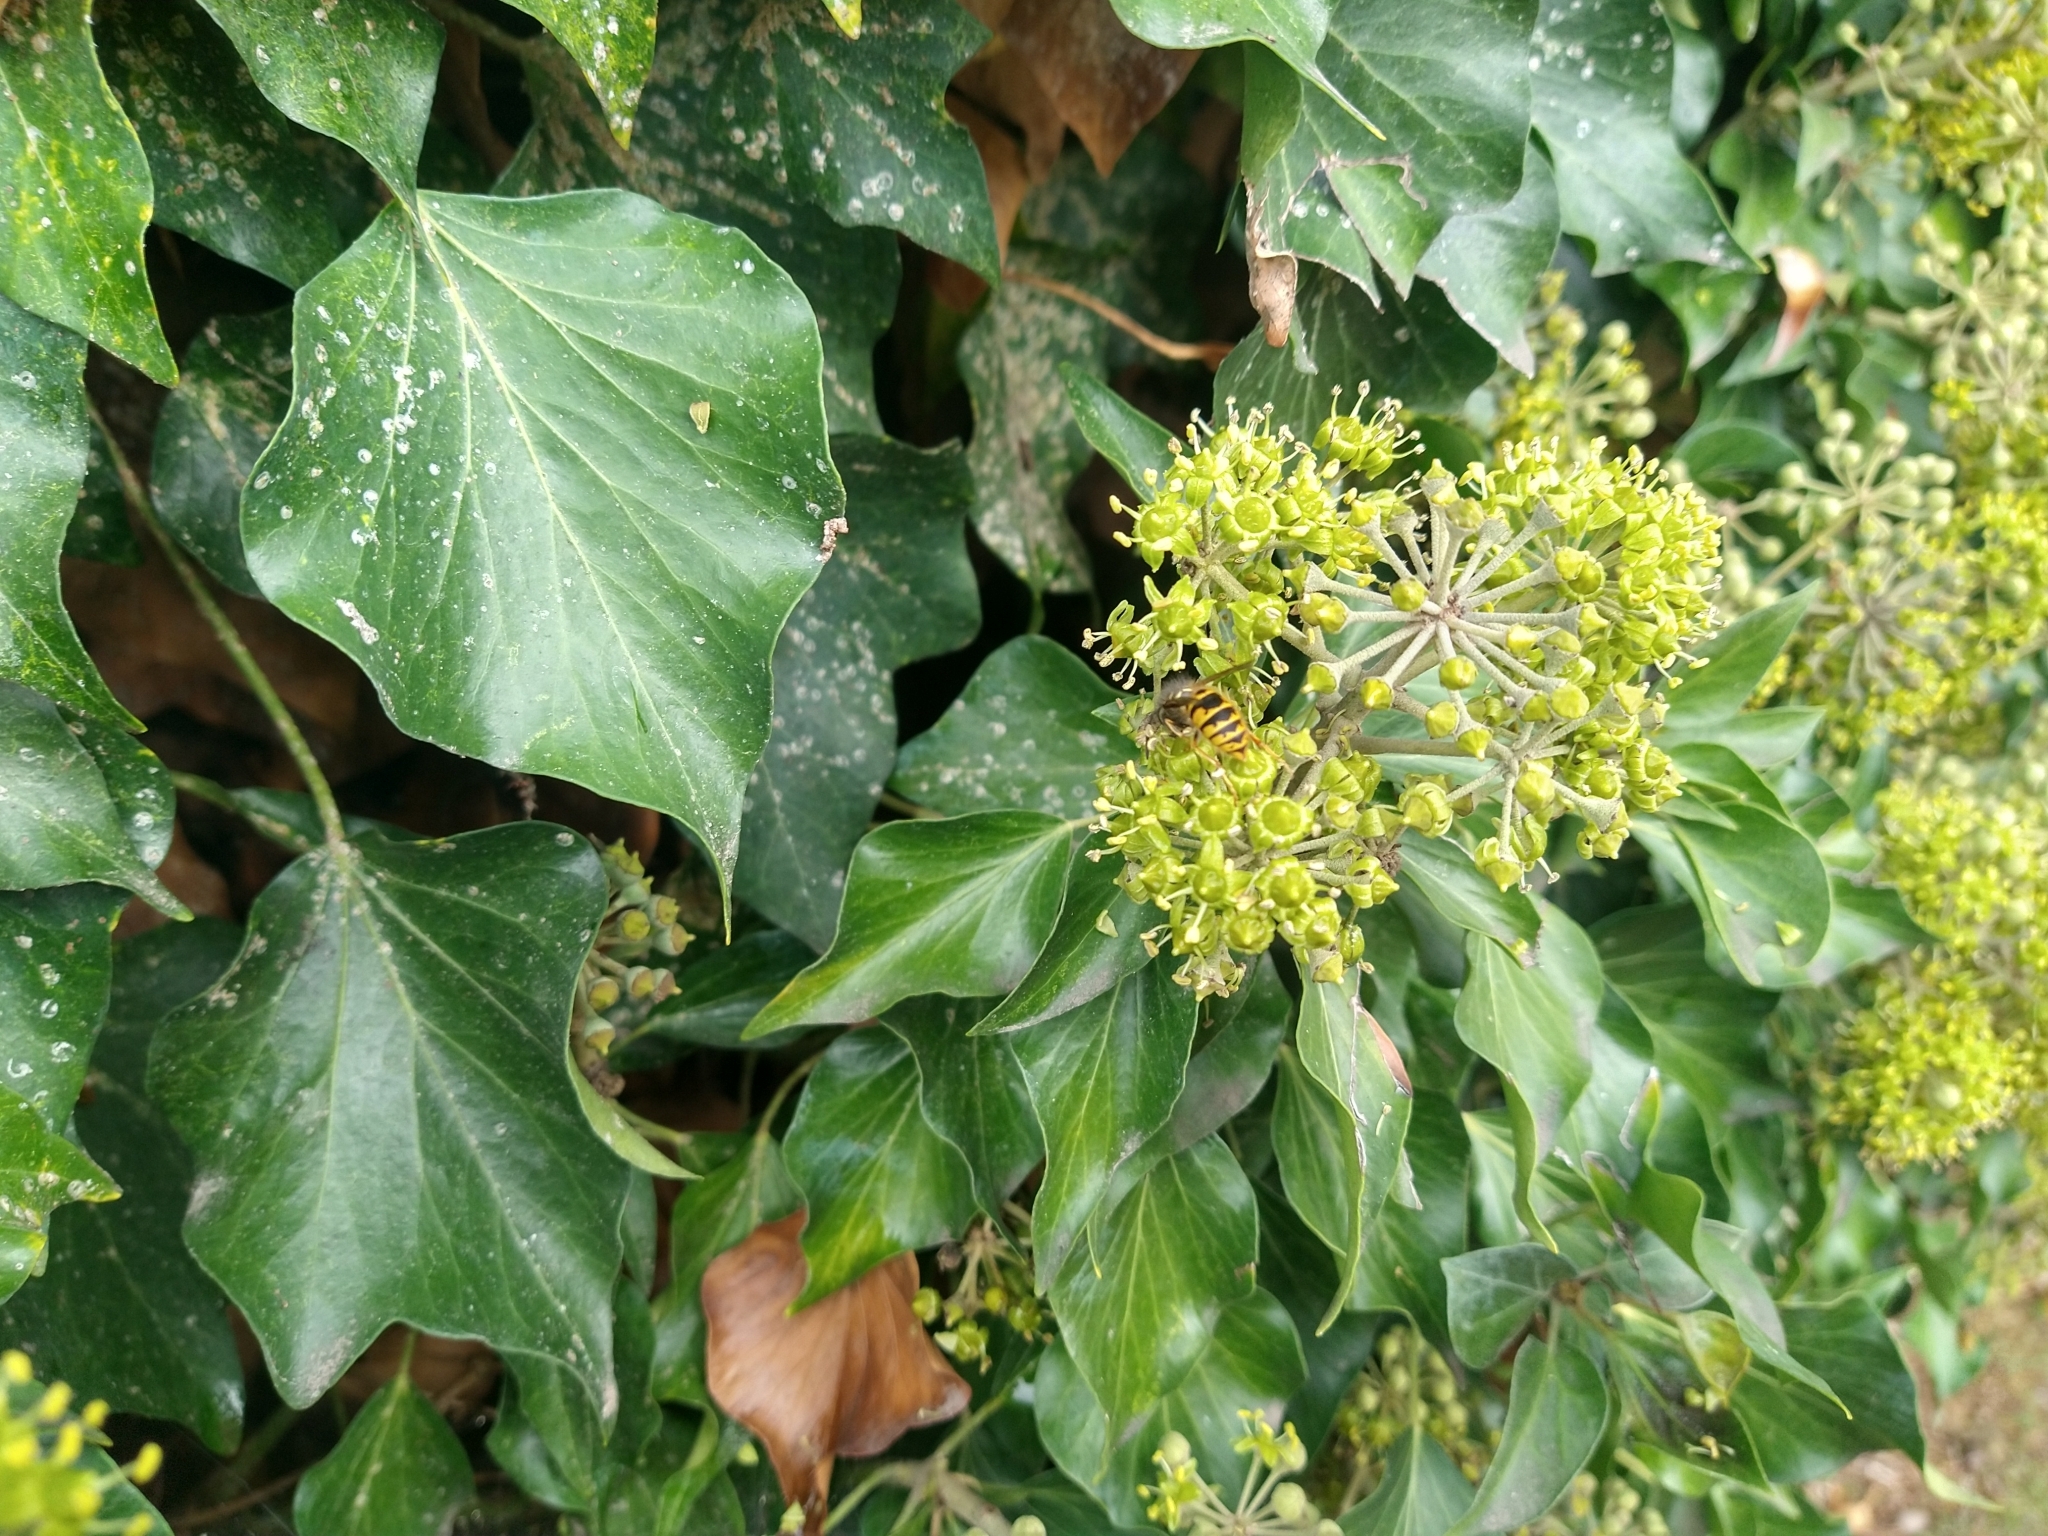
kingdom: Plantae
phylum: Tracheophyta
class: Magnoliopsida
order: Apiales
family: Araliaceae
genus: Hedera
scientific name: Hedera helix
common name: Ivy
